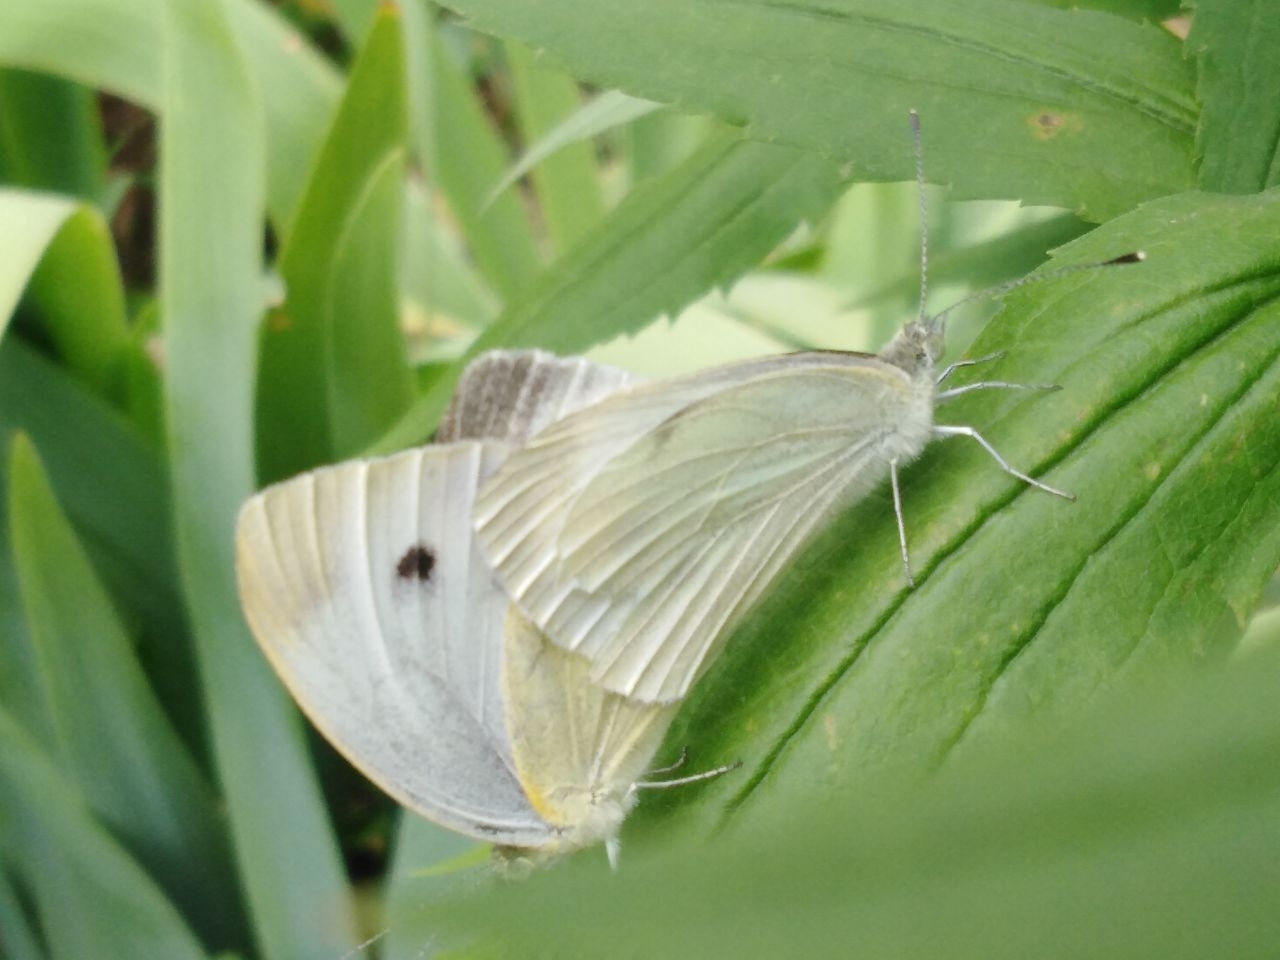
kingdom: Animalia
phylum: Arthropoda
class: Insecta
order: Lepidoptera
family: Pieridae
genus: Pieris
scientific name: Pieris rapae
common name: Small white
